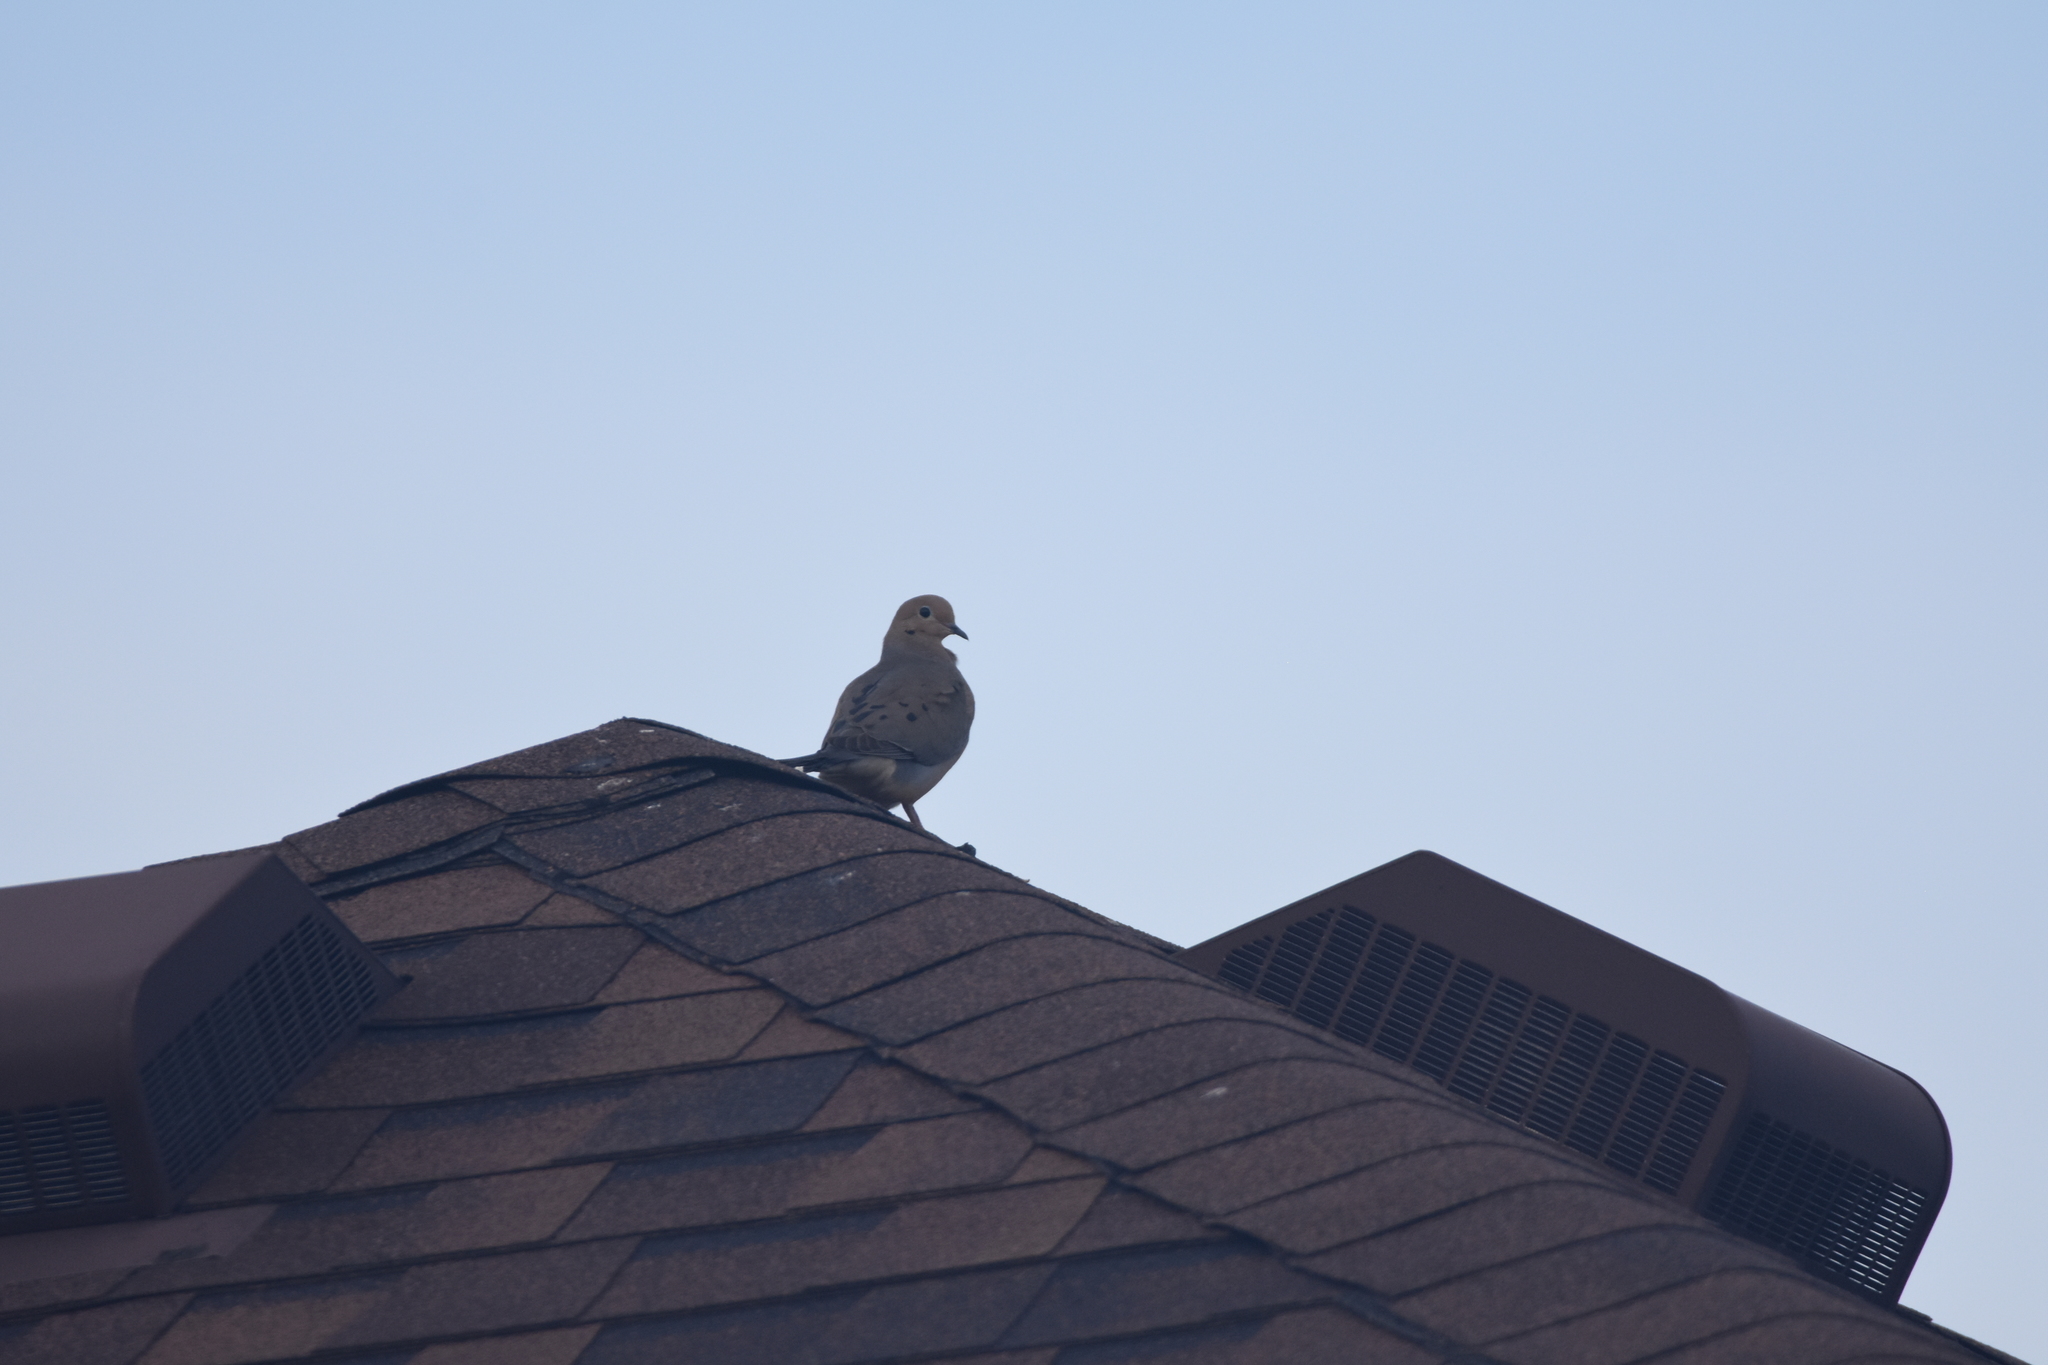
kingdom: Animalia
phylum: Chordata
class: Aves
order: Columbiformes
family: Columbidae
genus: Zenaida
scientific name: Zenaida macroura
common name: Mourning dove
